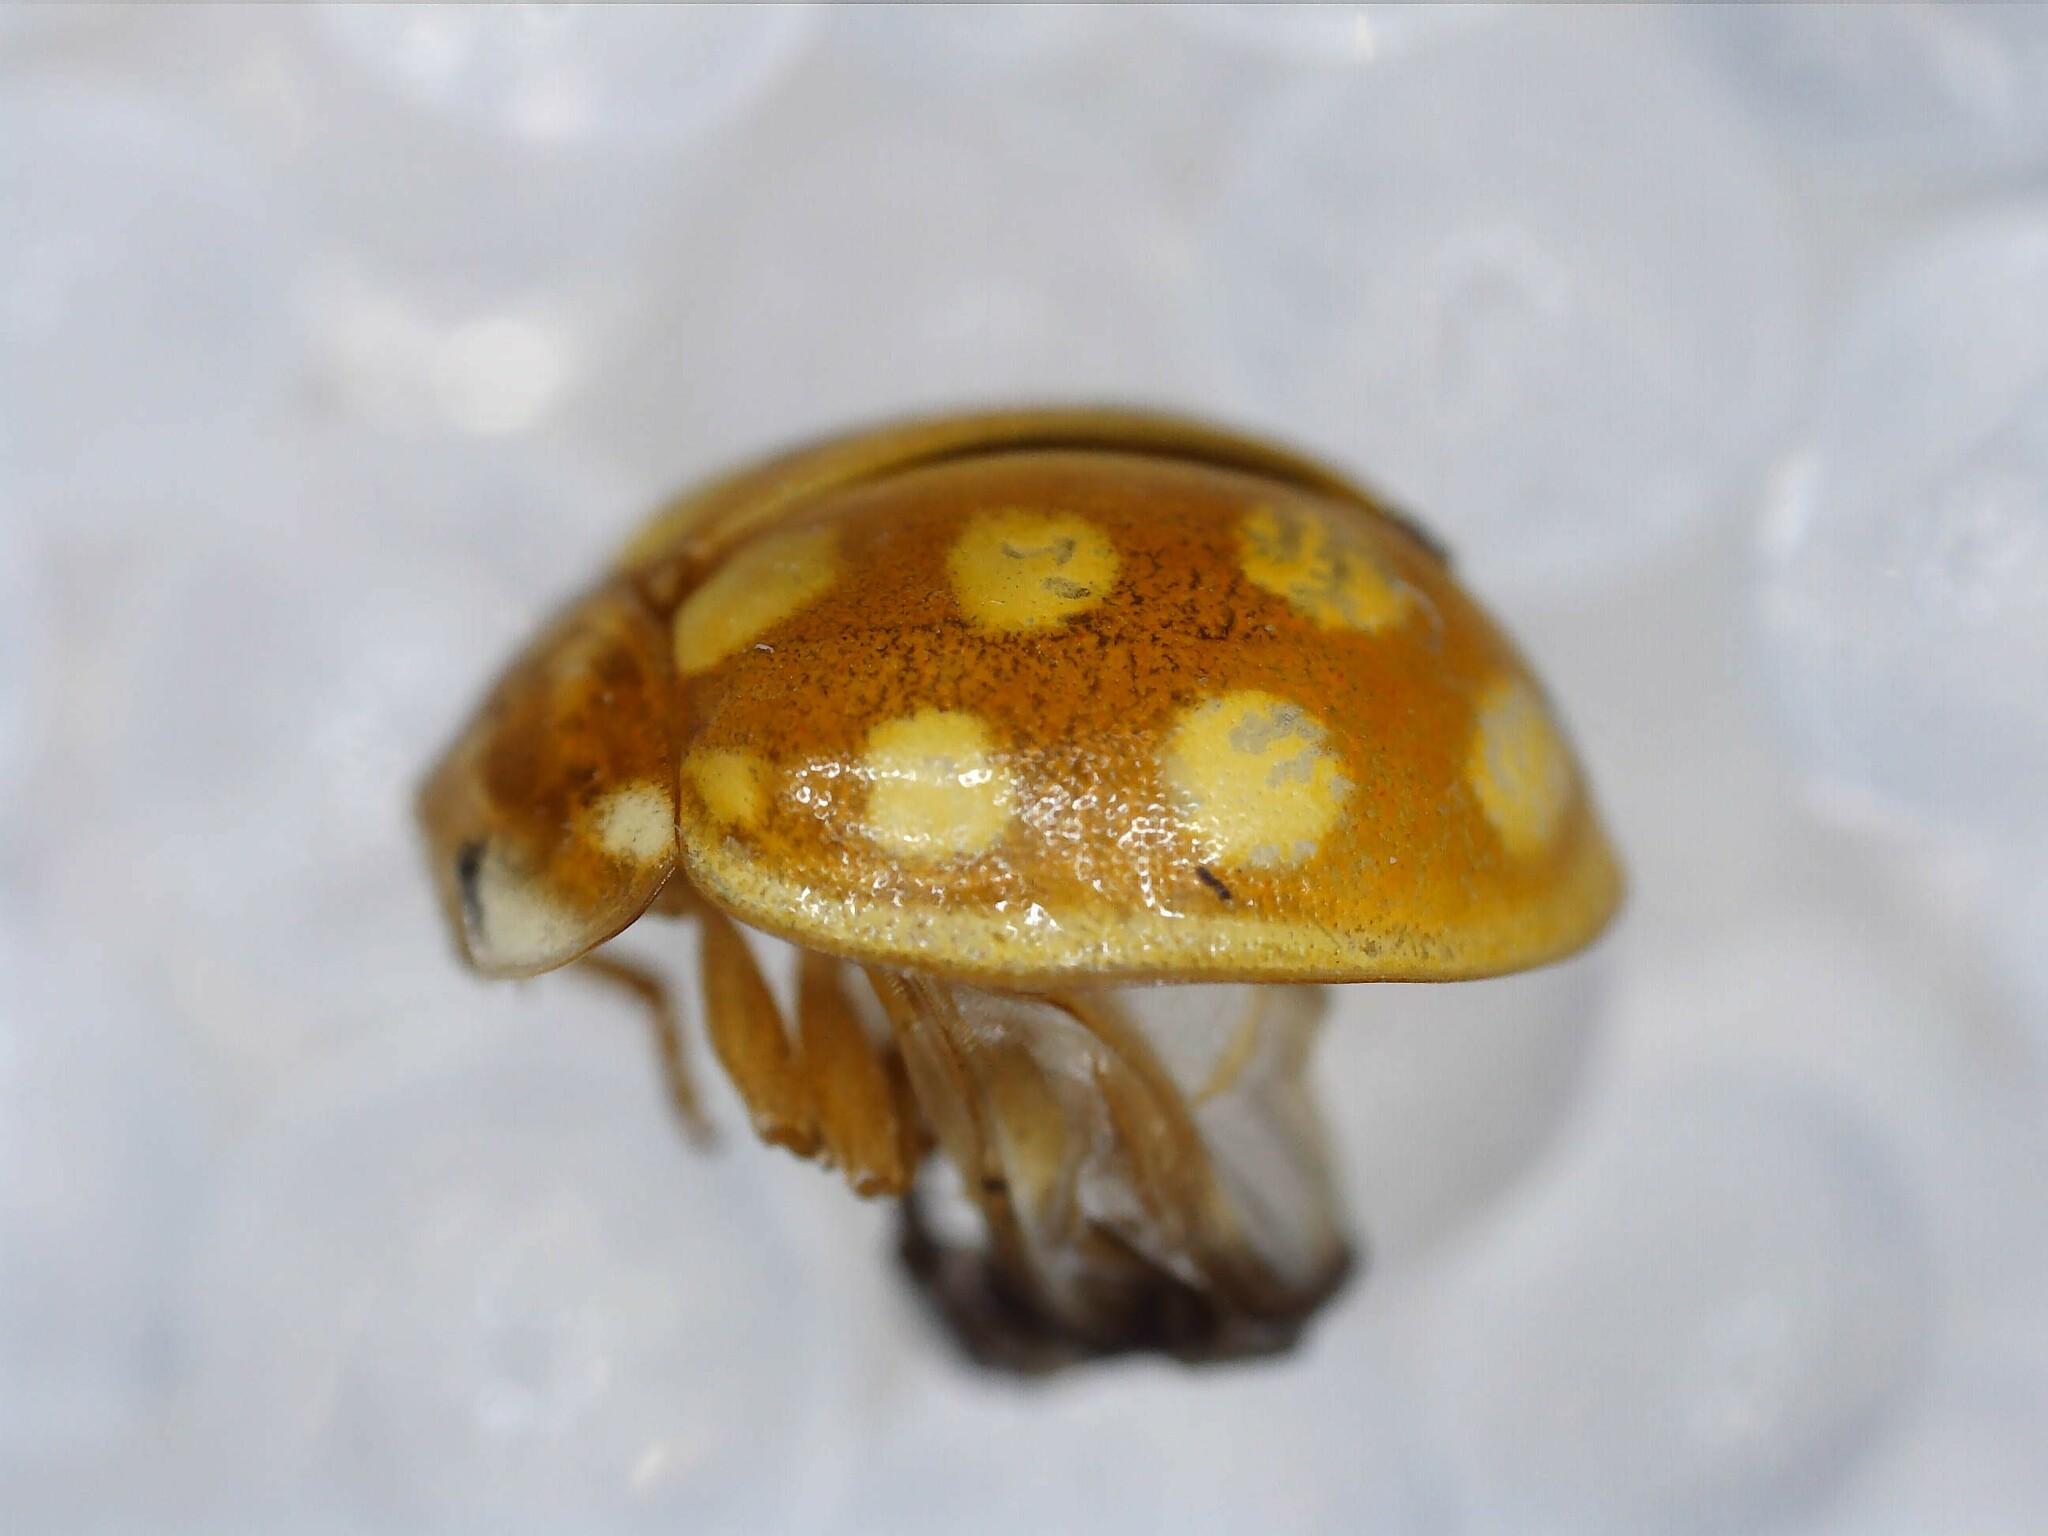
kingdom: Animalia
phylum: Arthropoda
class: Insecta
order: Coleoptera
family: Coccinellidae
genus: Calvia
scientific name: Calvia quindecimguttata
